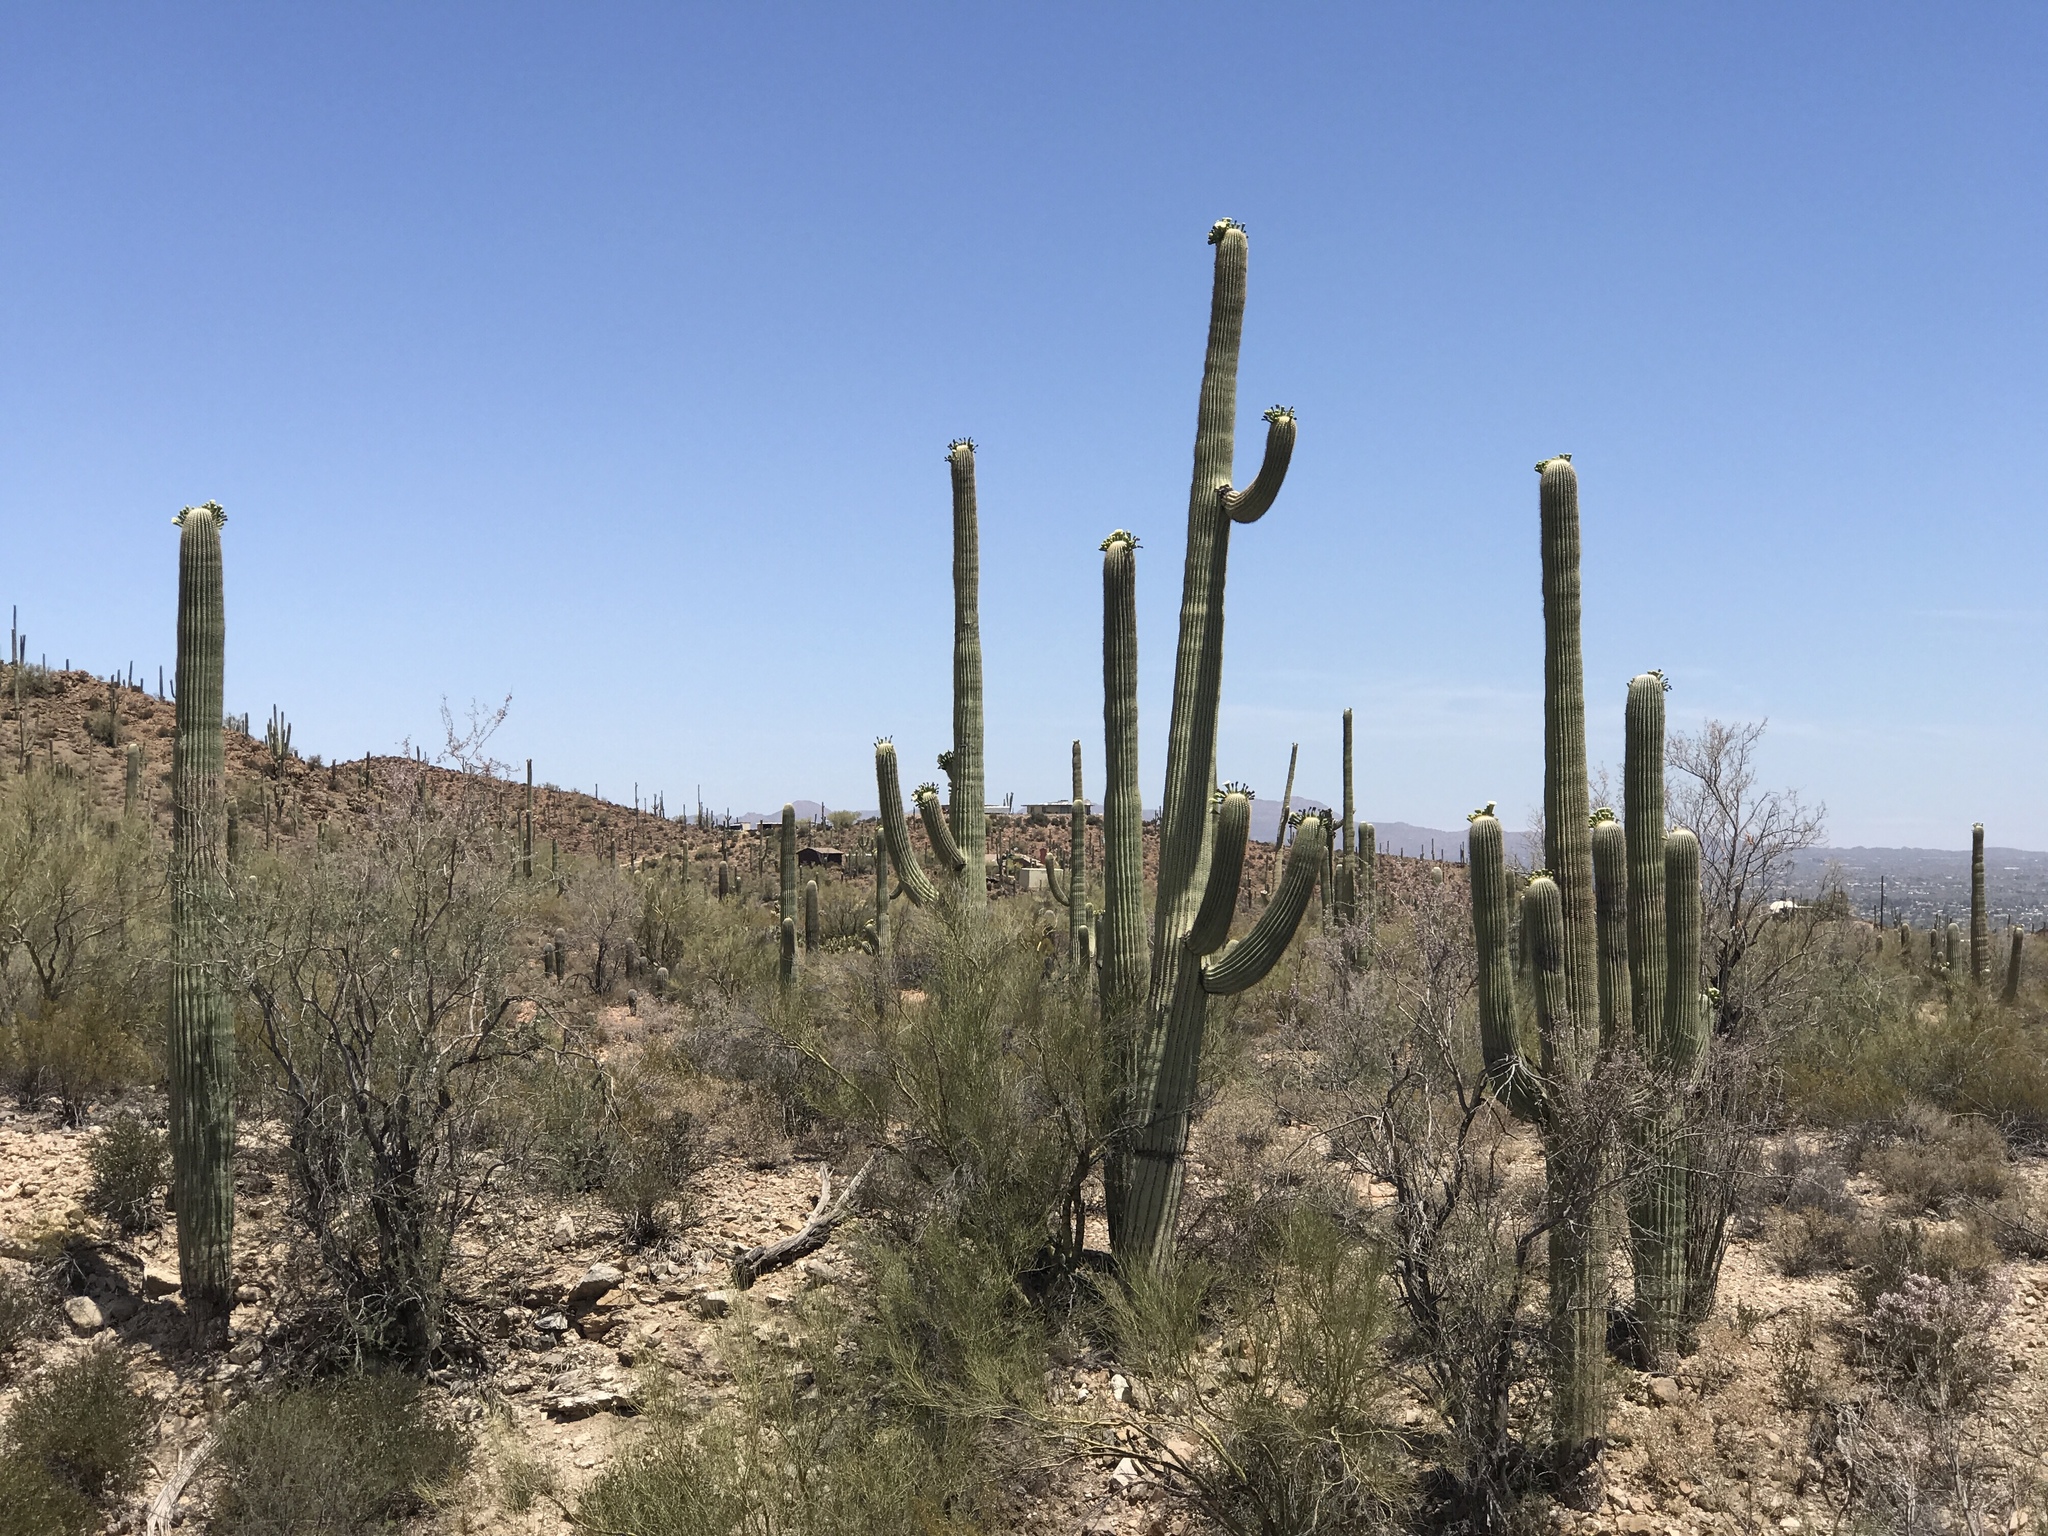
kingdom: Plantae
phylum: Tracheophyta
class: Magnoliopsida
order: Caryophyllales
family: Cactaceae
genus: Carnegiea
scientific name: Carnegiea gigantea
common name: Saguaro
